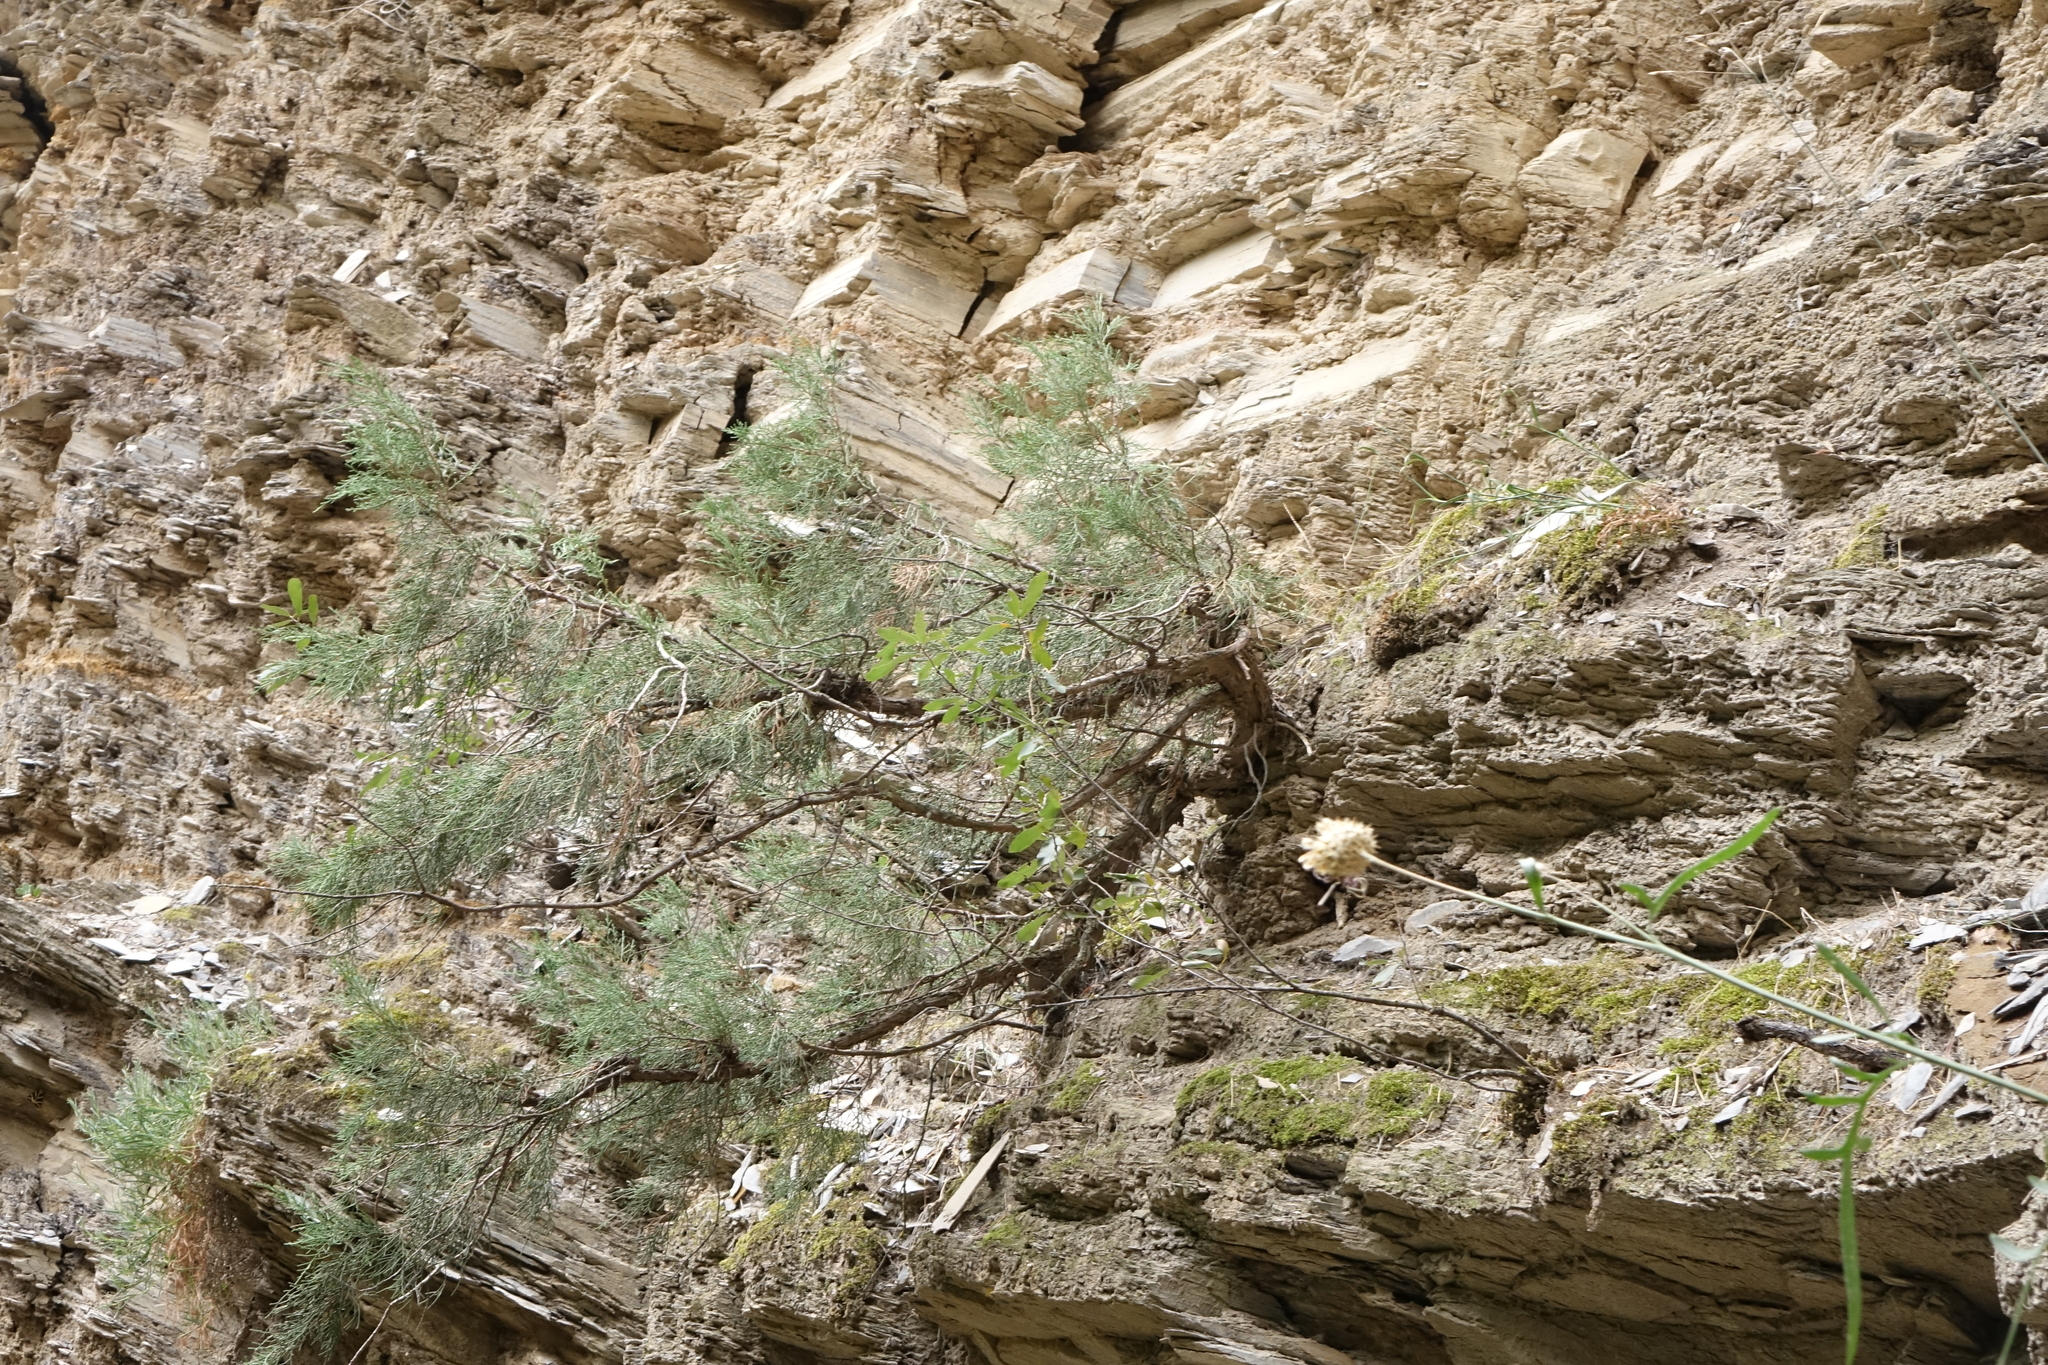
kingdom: Plantae
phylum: Tracheophyta
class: Pinopsida
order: Pinales
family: Cupressaceae
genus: Juniperus
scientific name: Juniperus excelsa
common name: Crimean juniper
